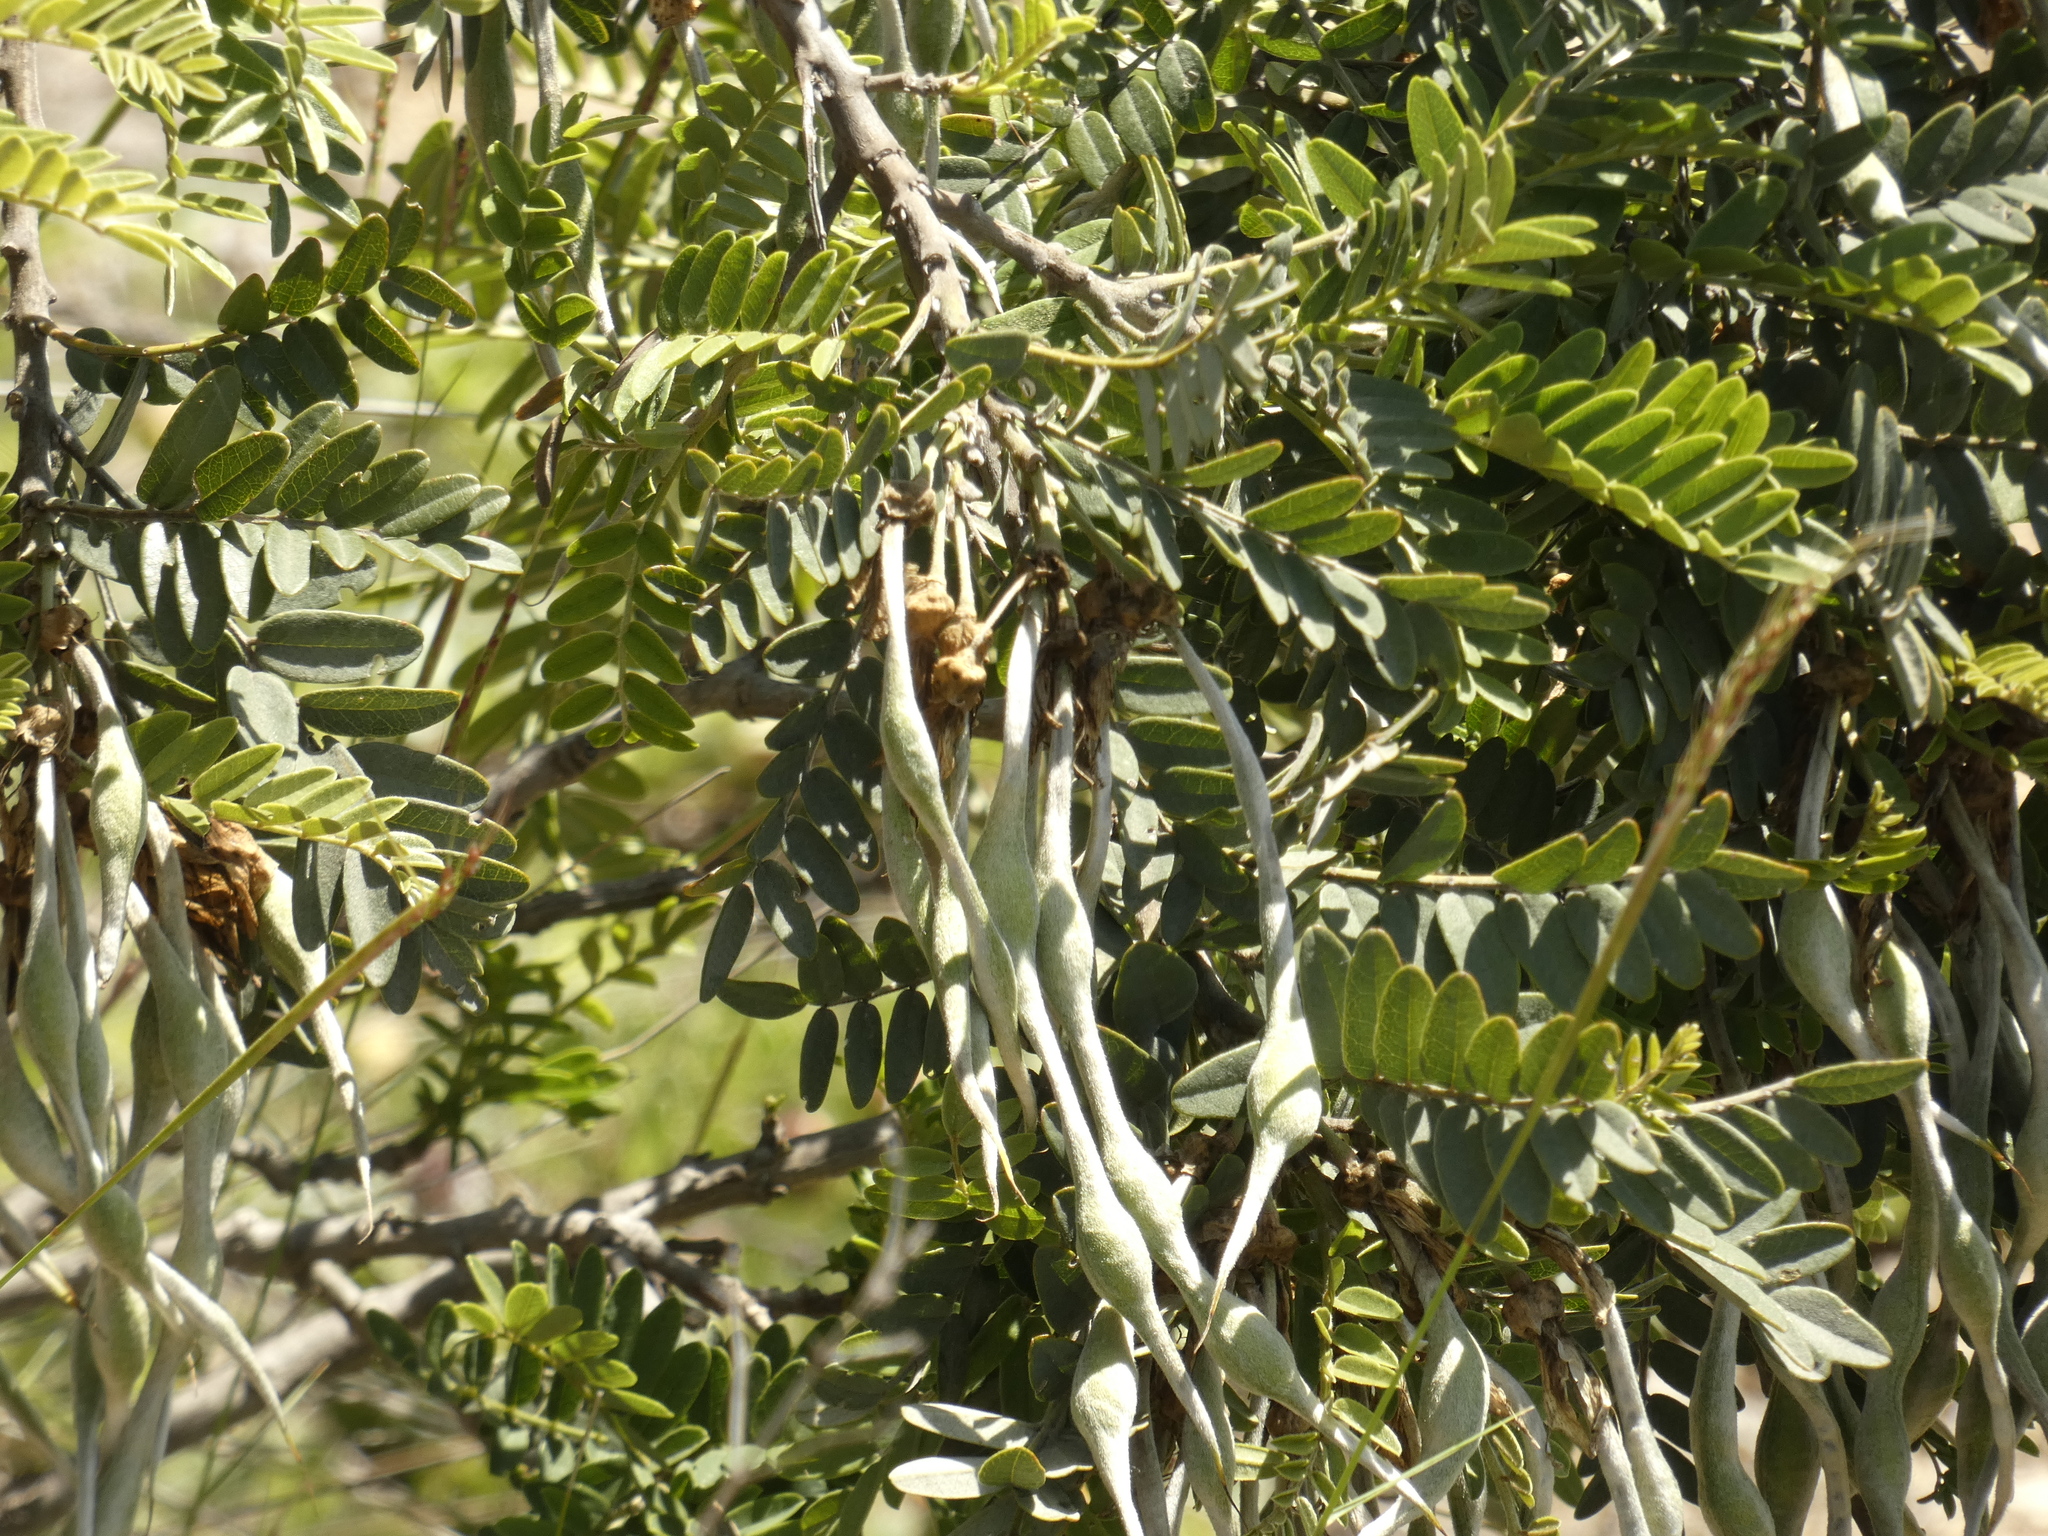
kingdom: Plantae
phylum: Tracheophyta
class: Magnoliopsida
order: Fabales
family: Fabaceae
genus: Sophora
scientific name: Sophora macrocarpa
